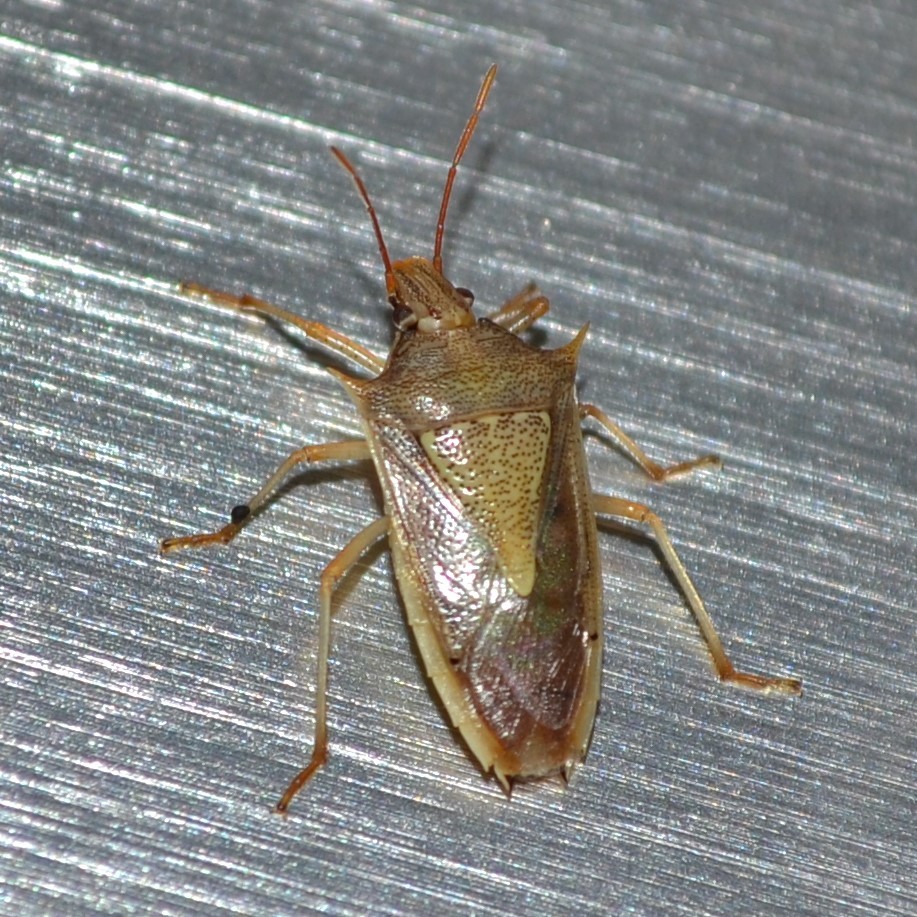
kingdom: Animalia
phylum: Arthropoda
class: Insecta
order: Hemiptera
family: Pentatomidae
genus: Oebalus
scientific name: Oebalus pugnax
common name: Rice stink bug
